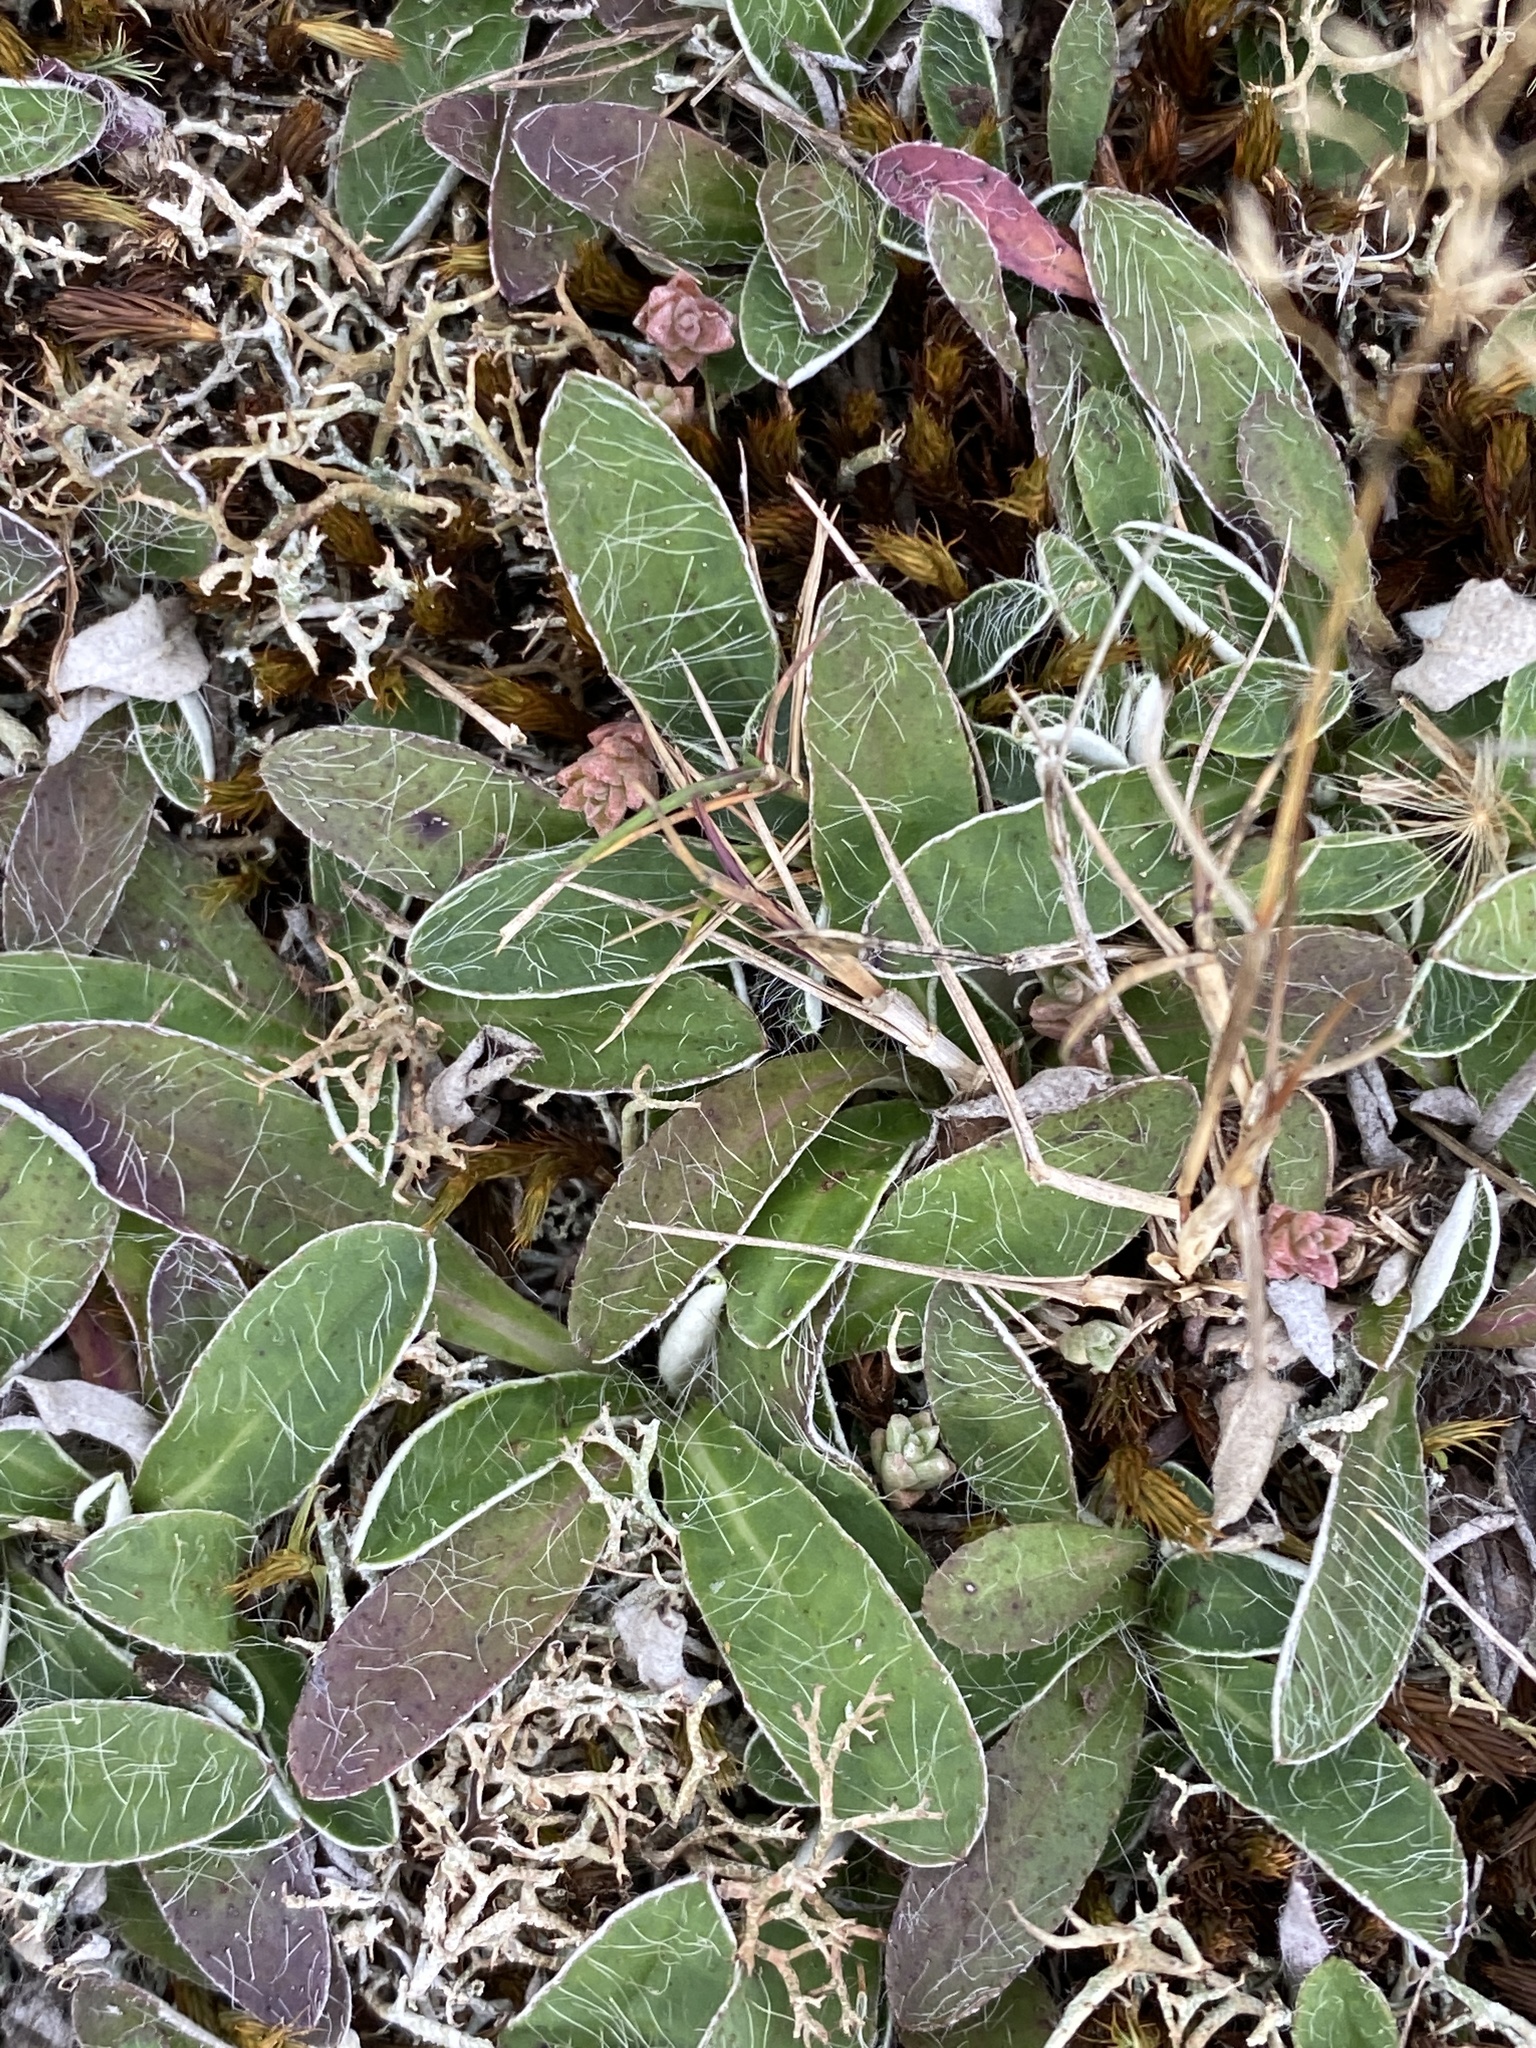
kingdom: Plantae
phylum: Tracheophyta
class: Magnoliopsida
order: Asterales
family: Asteraceae
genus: Pilosella
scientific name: Pilosella officinarum
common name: Mouse-ear hawkweed
